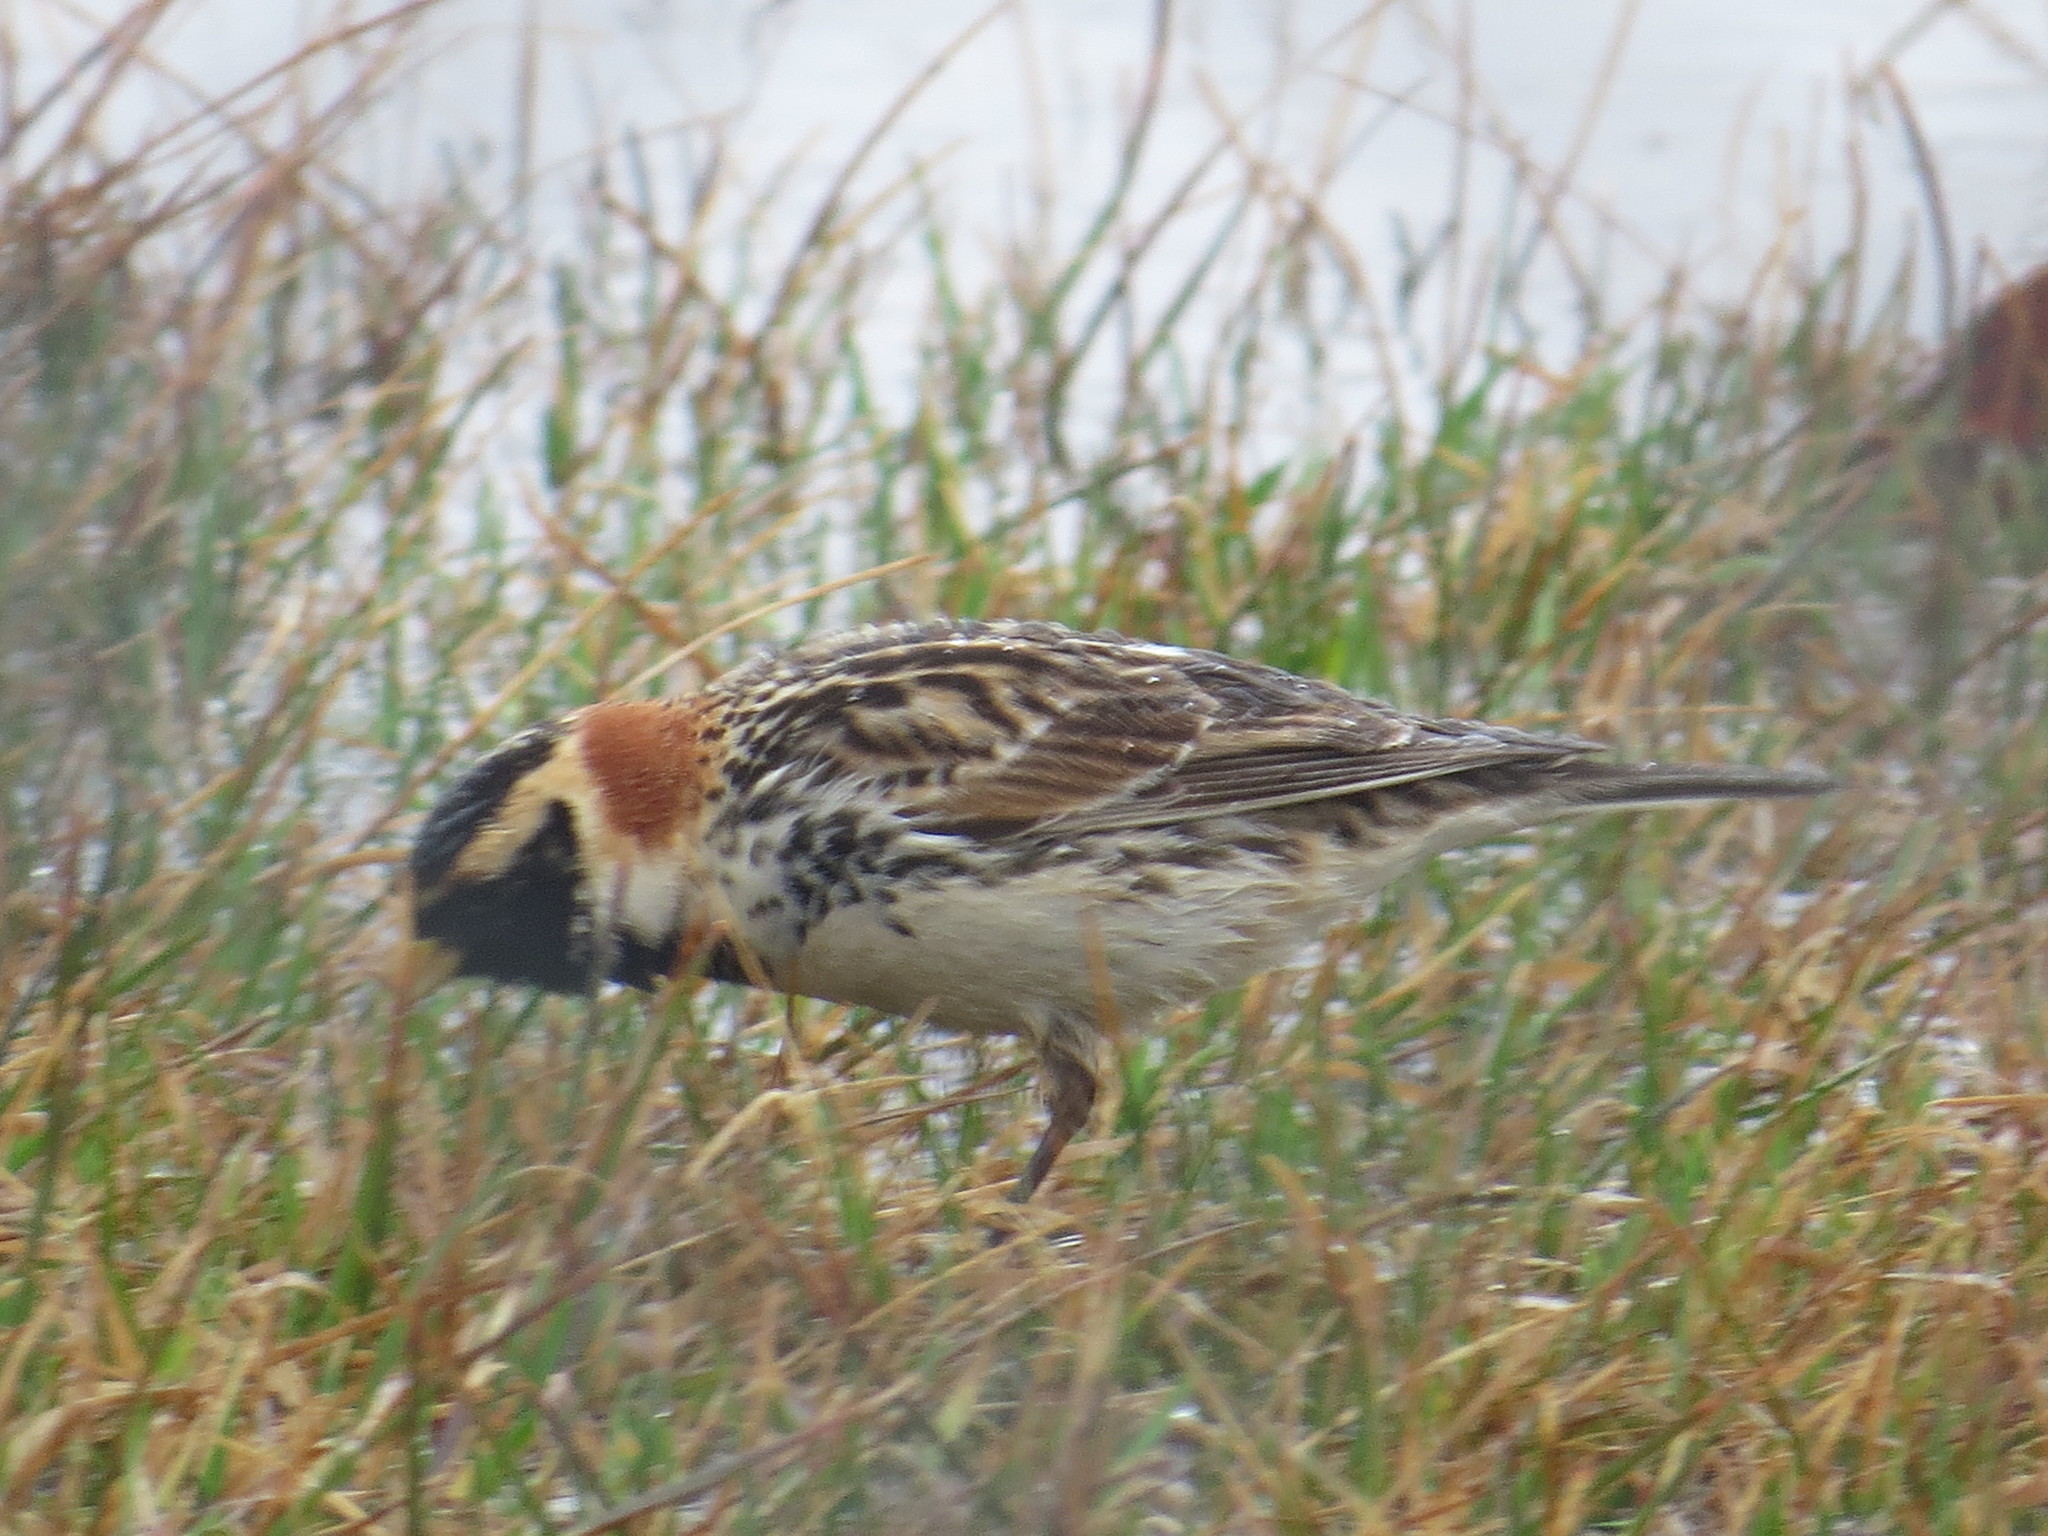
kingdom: Animalia
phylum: Chordata
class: Aves
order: Passeriformes
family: Calcariidae
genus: Calcarius
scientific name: Calcarius lapponicus
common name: Lapland longspur
